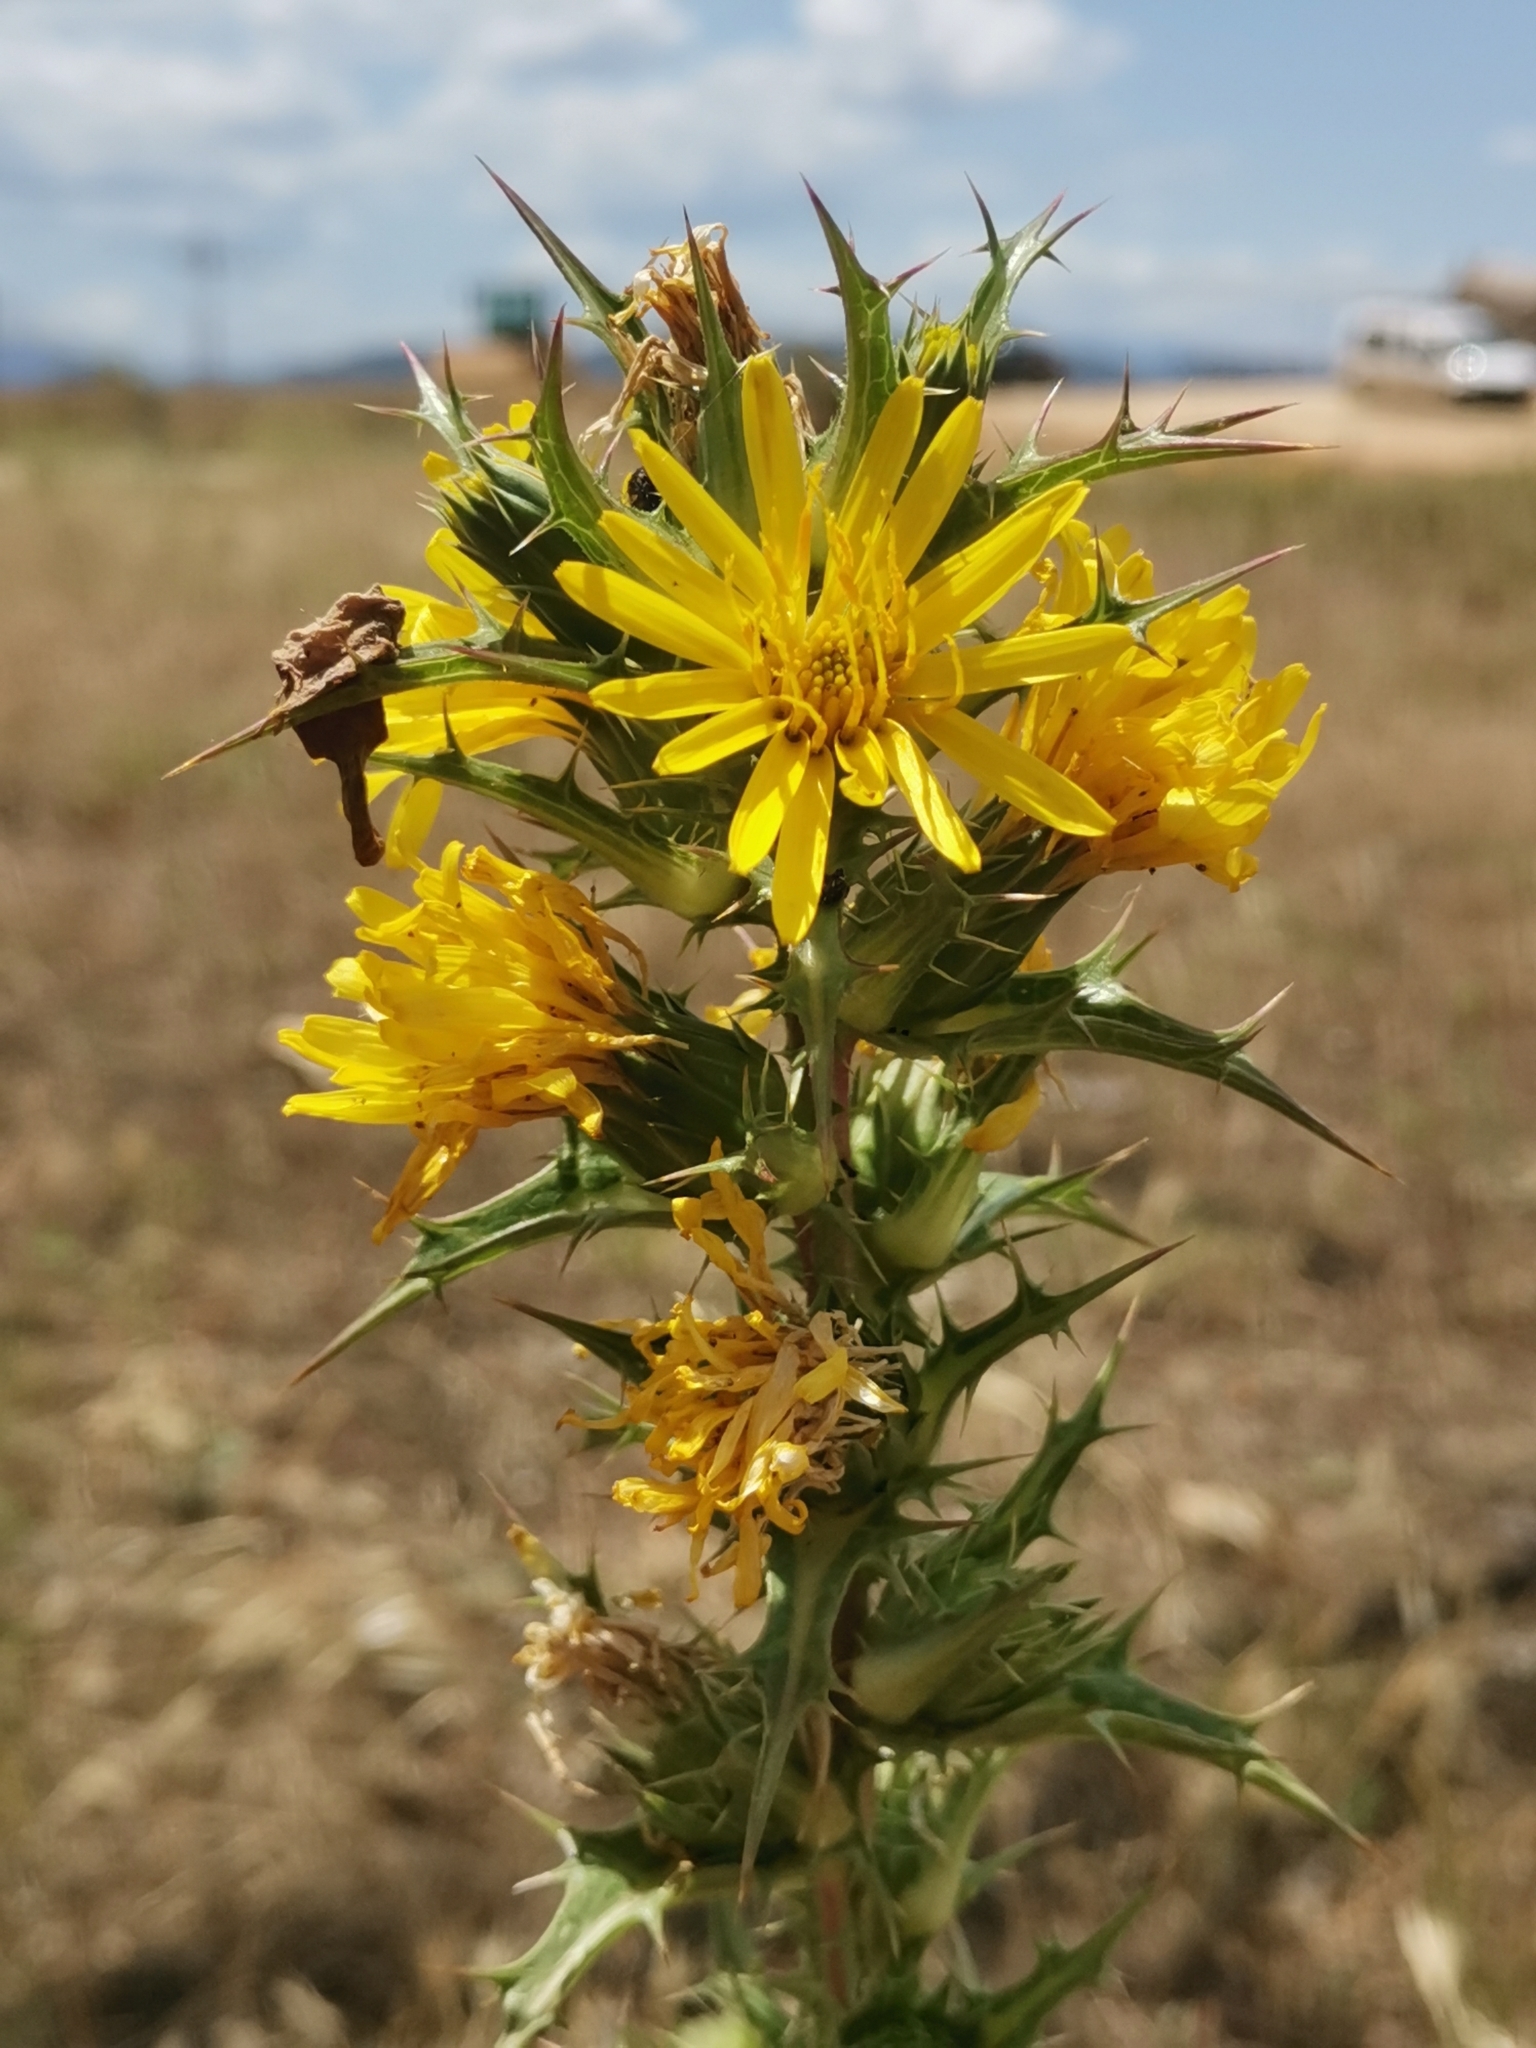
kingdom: Plantae
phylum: Tracheophyta
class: Magnoliopsida
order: Asterales
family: Asteraceae
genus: Scolymus
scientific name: Scolymus hispanicus
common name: Golden thistle
